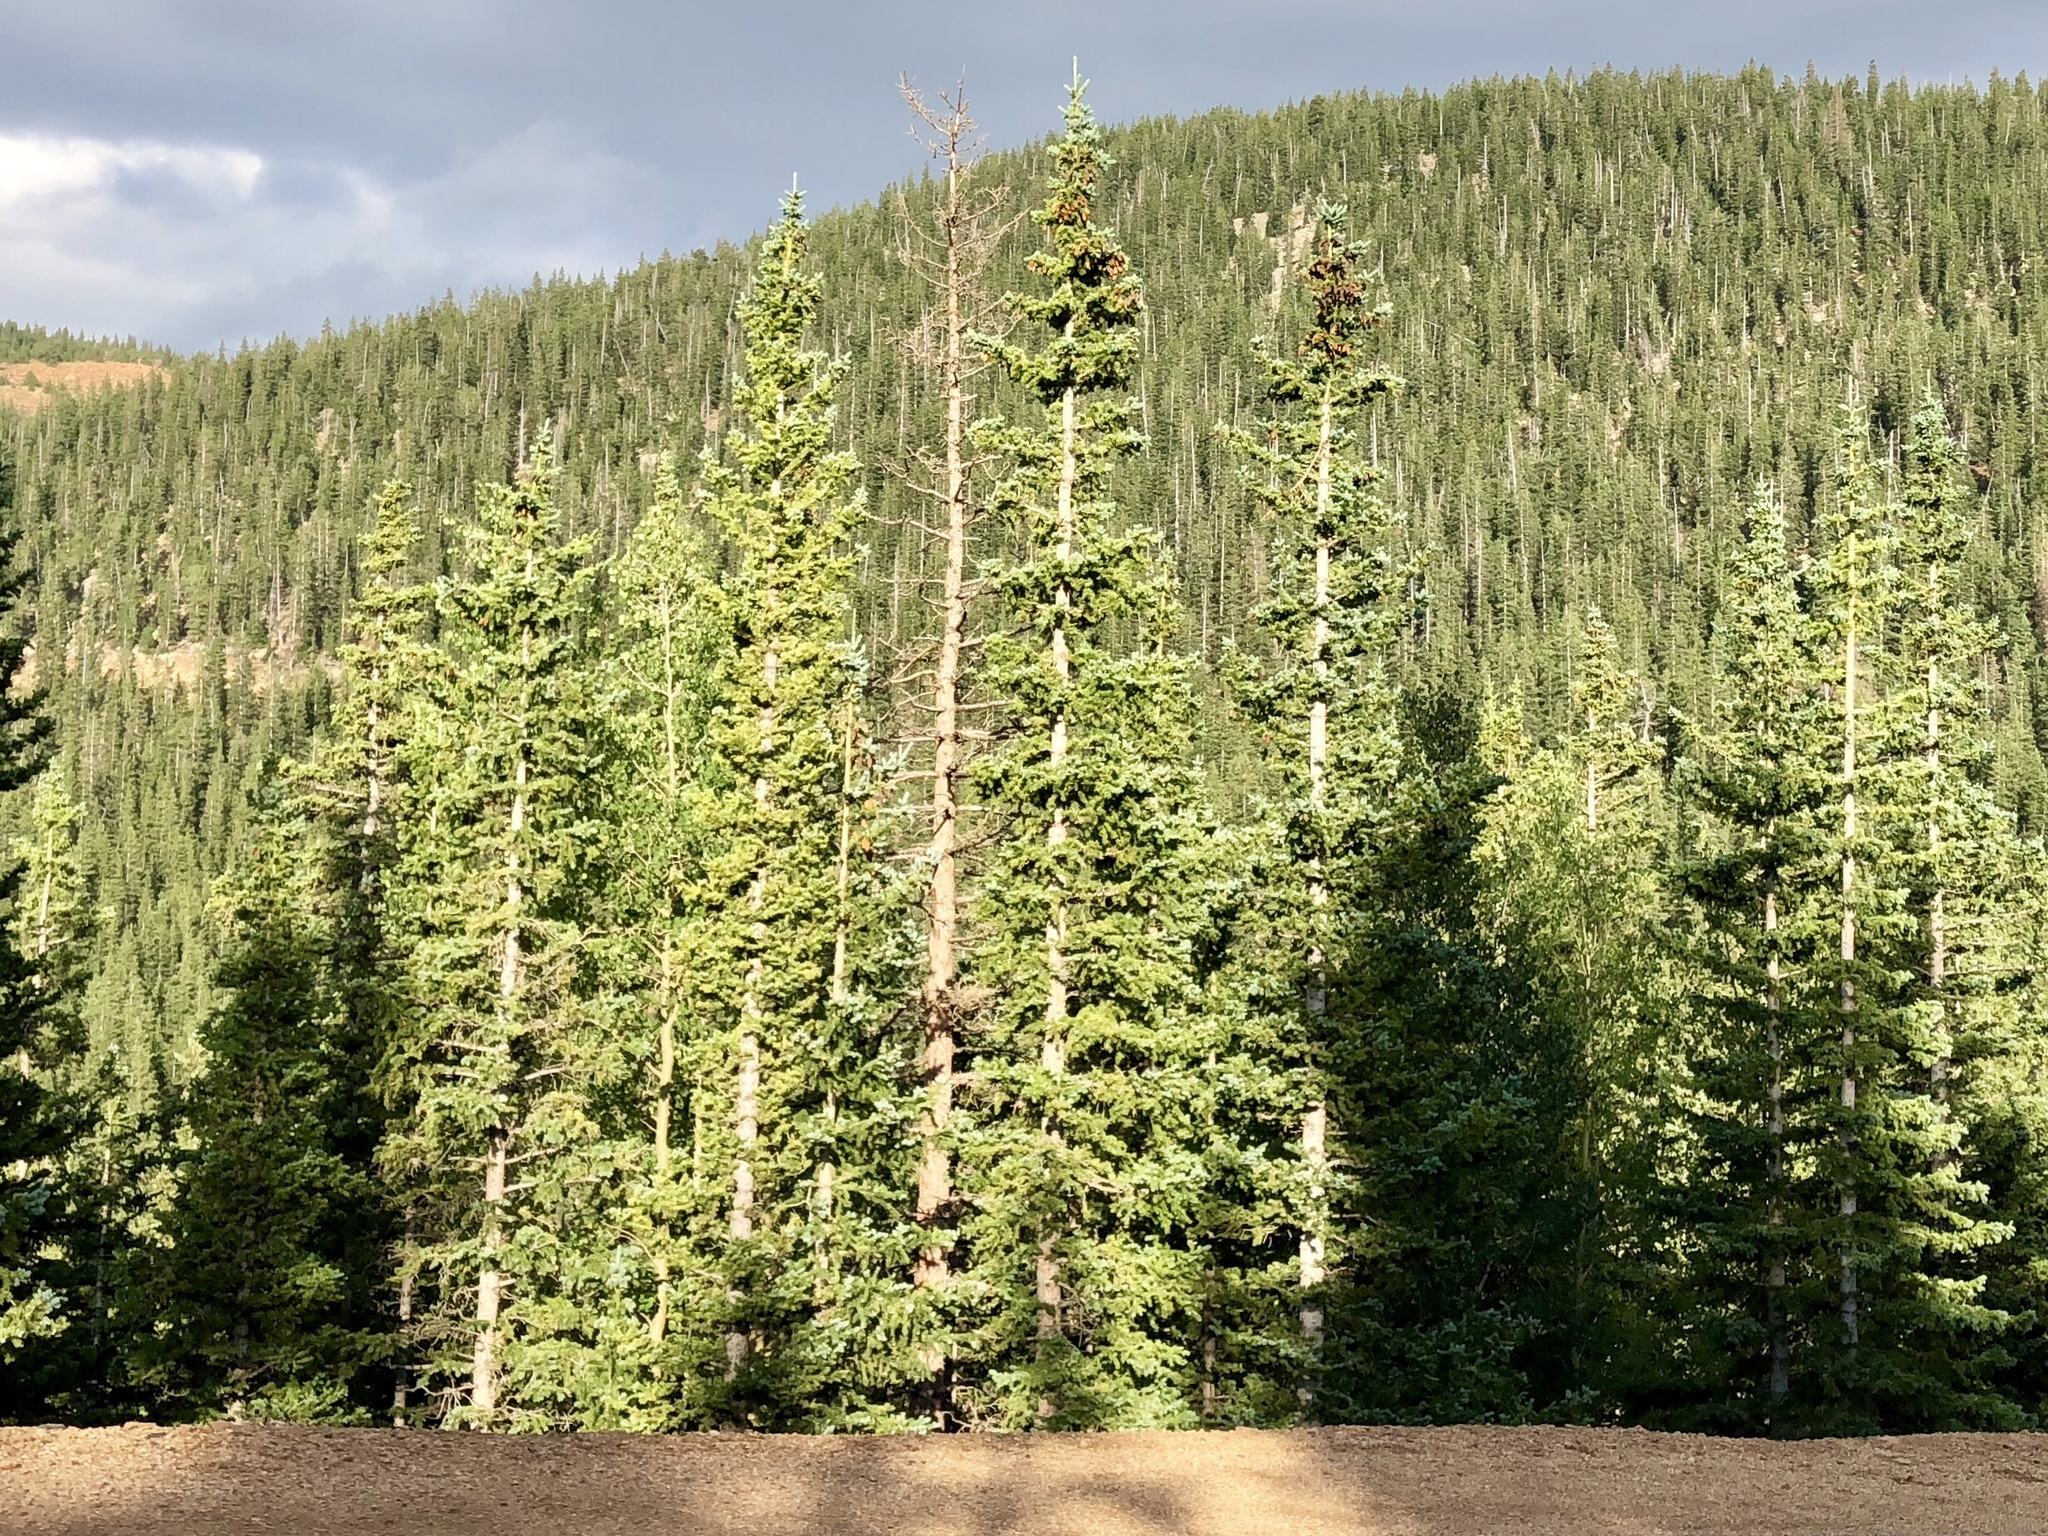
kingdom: Plantae
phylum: Tracheophyta
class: Pinopsida
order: Pinales
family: Pinaceae
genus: Picea
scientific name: Picea engelmannii
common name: Engelmann spruce
